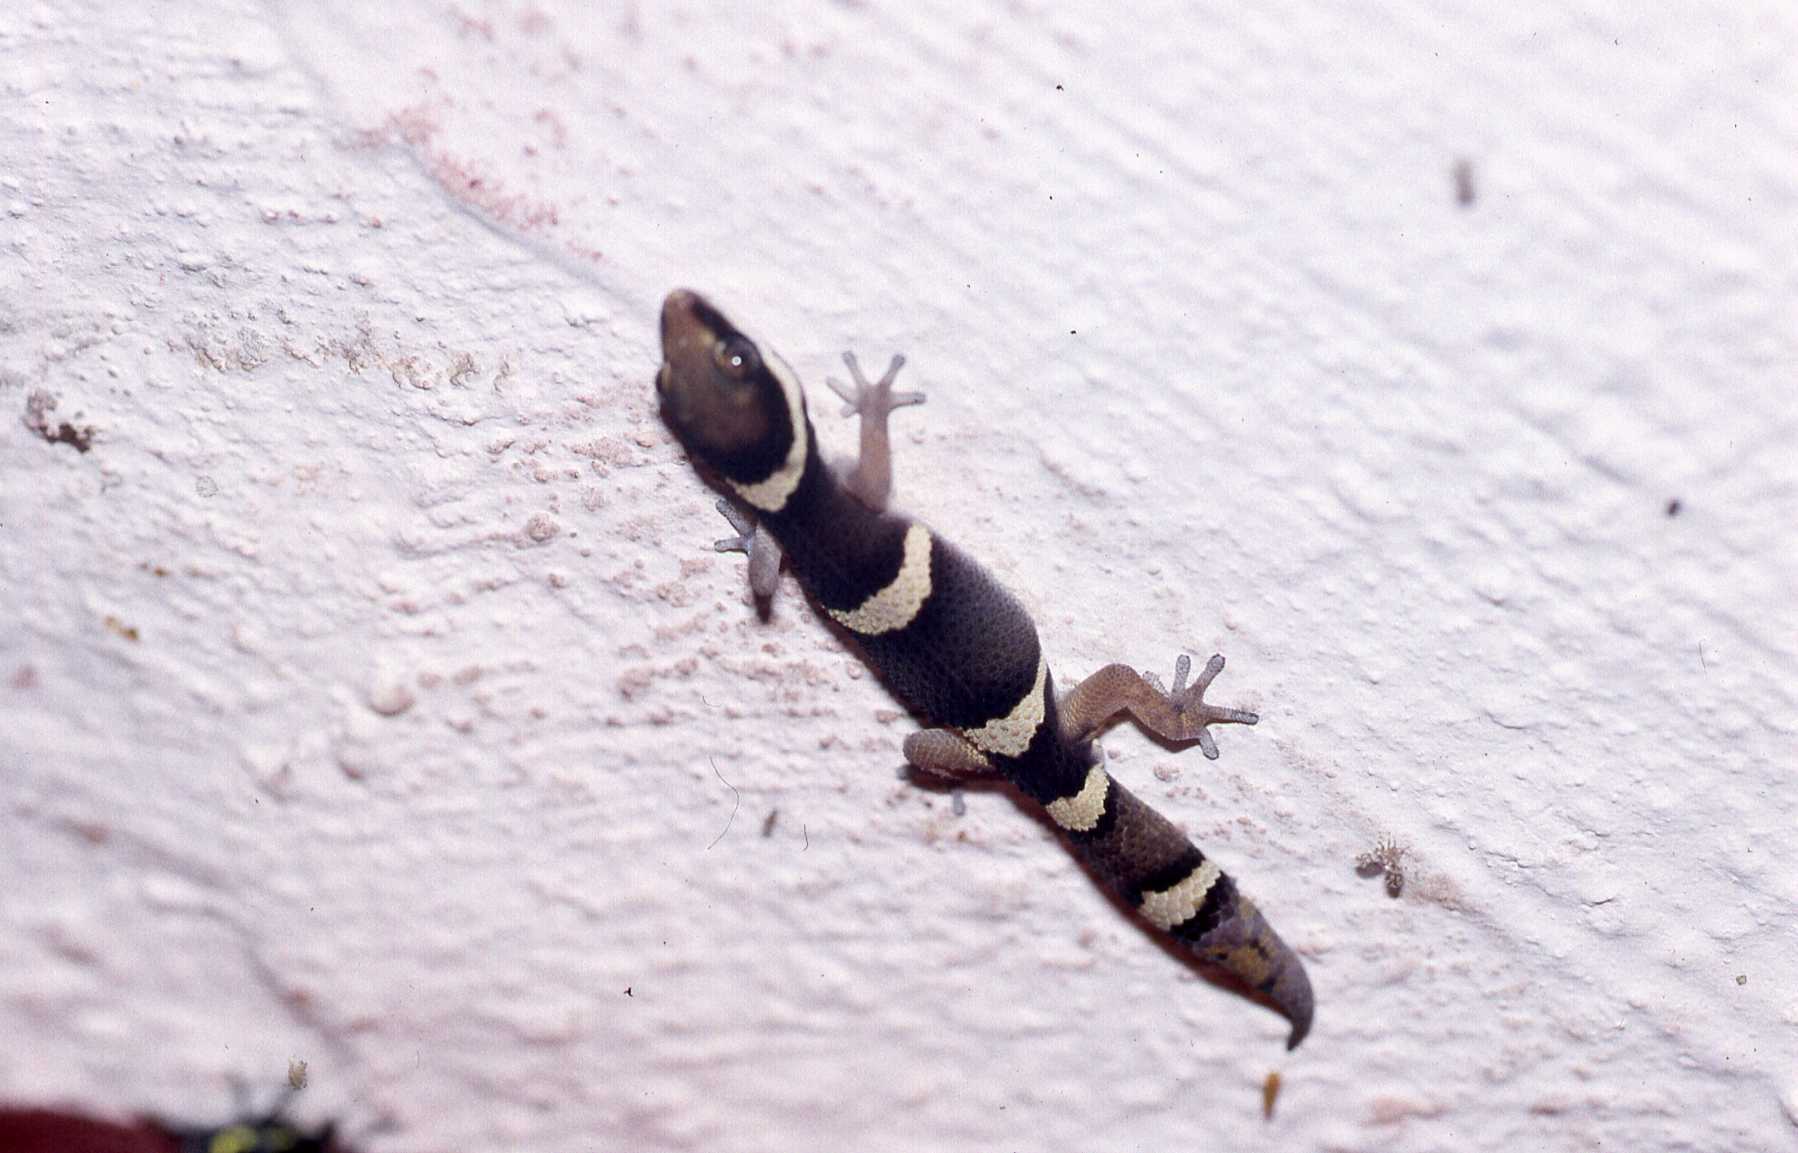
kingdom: Animalia
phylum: Chordata
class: Squamata
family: Gekkonidae
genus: Pachydactylus
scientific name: Pachydactylus oshaughnessyi
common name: O'shaughnessy's thick-toed gecko
